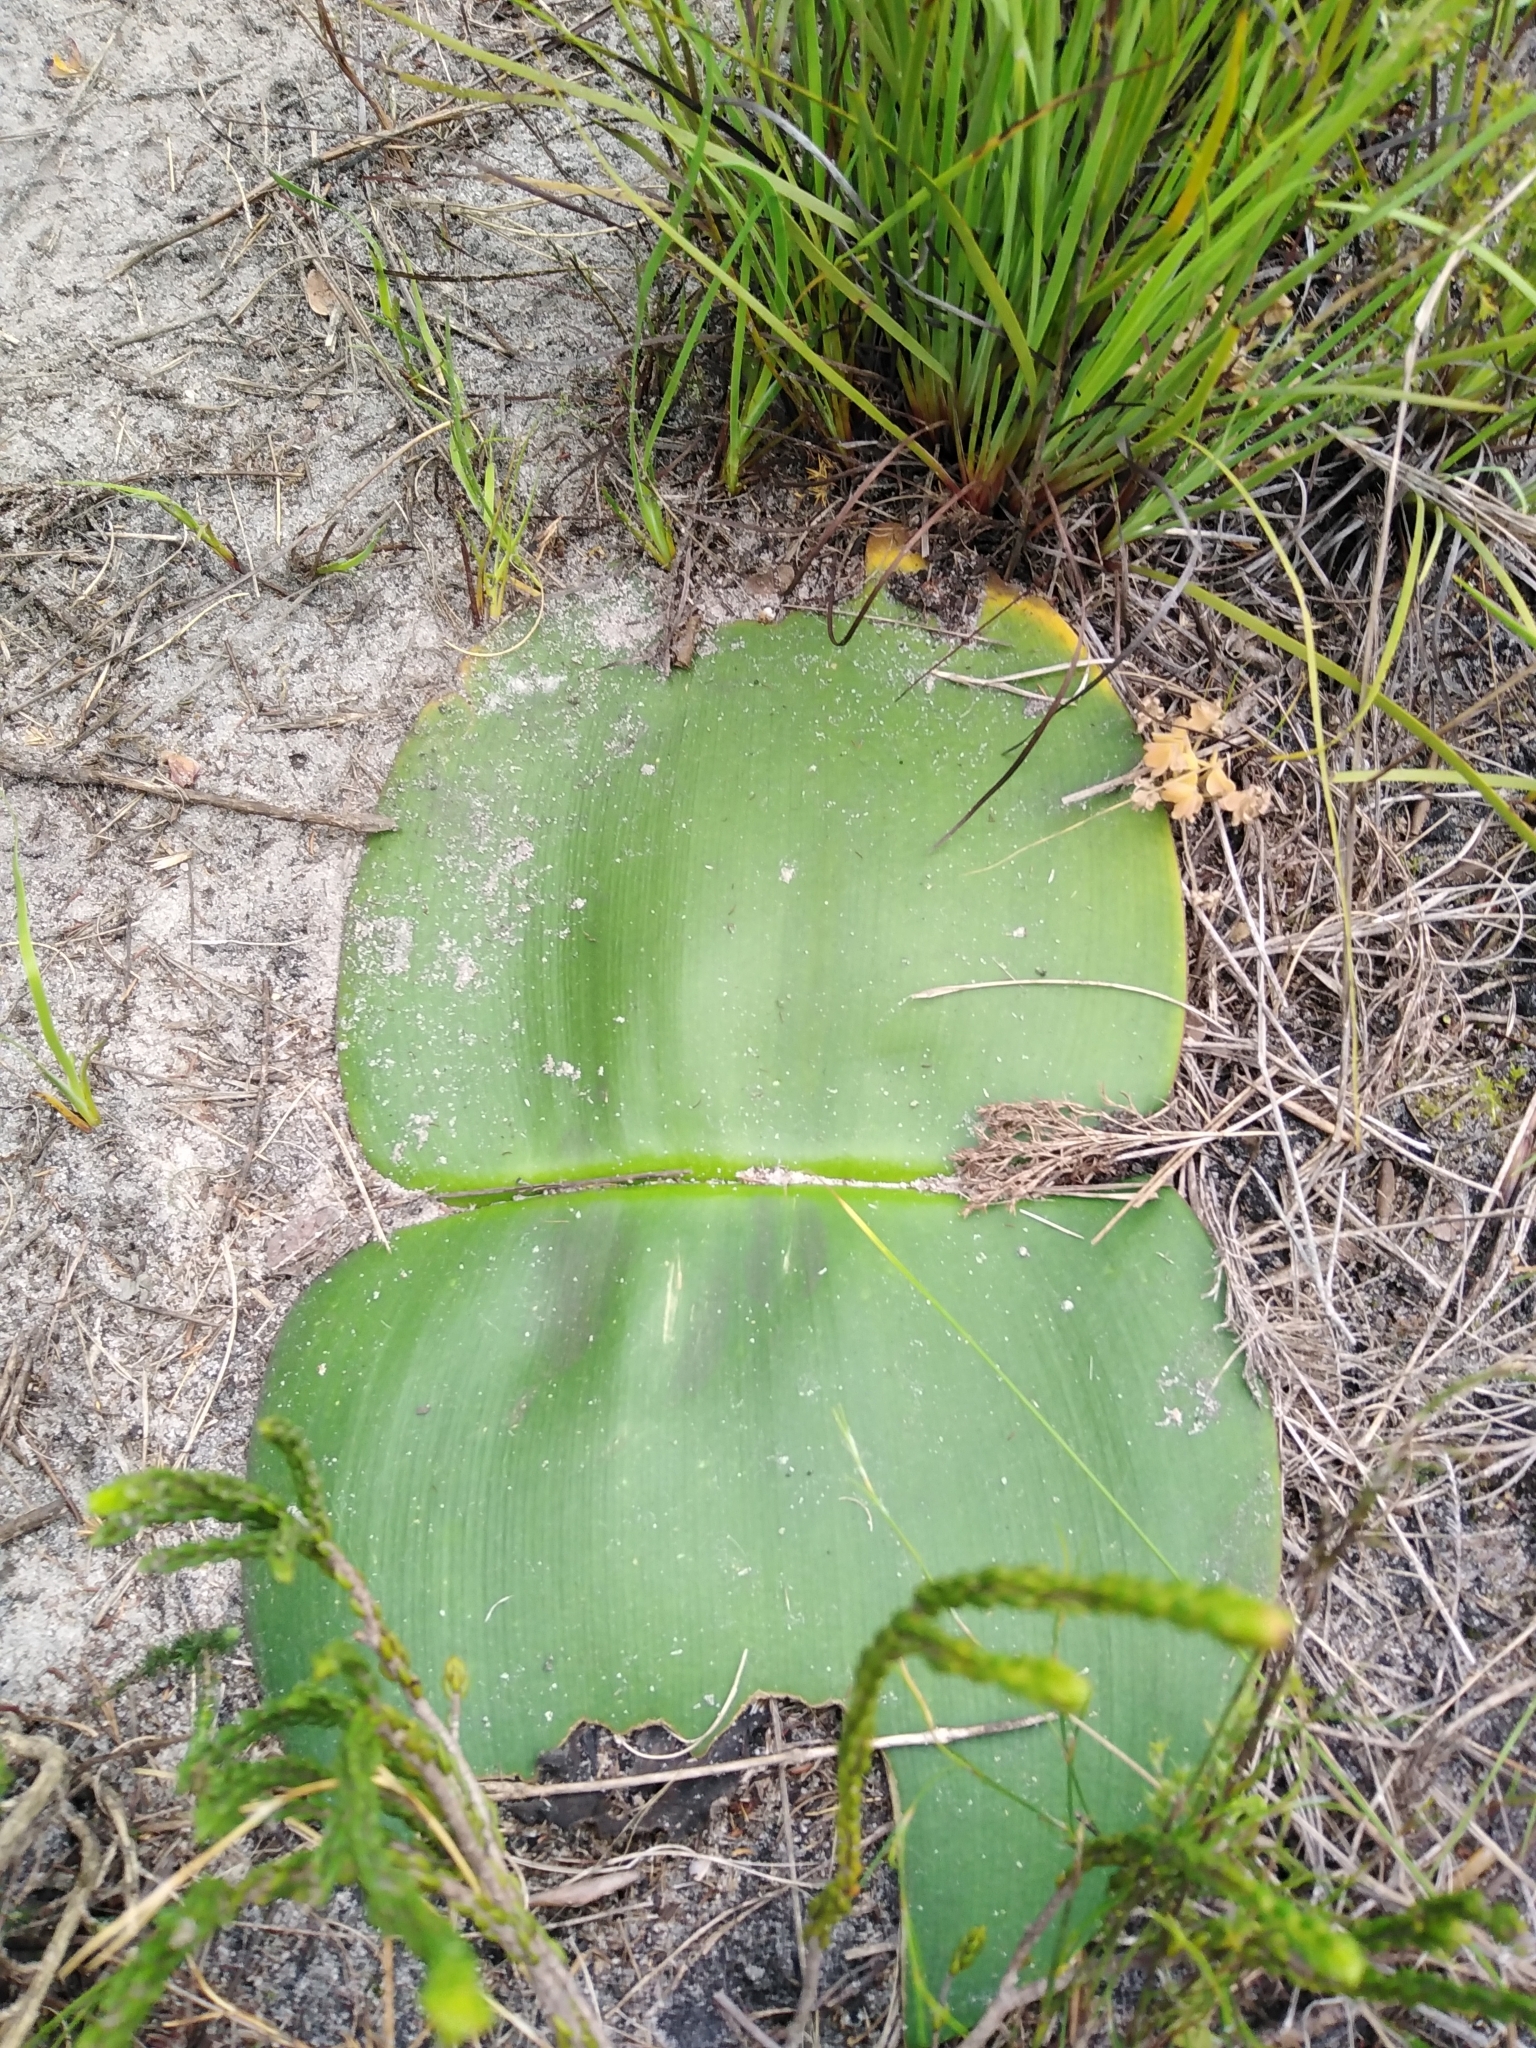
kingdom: Plantae
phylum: Tracheophyta
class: Liliopsida
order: Asparagales
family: Amaryllidaceae
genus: Haemanthus
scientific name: Haemanthus sanguineus
